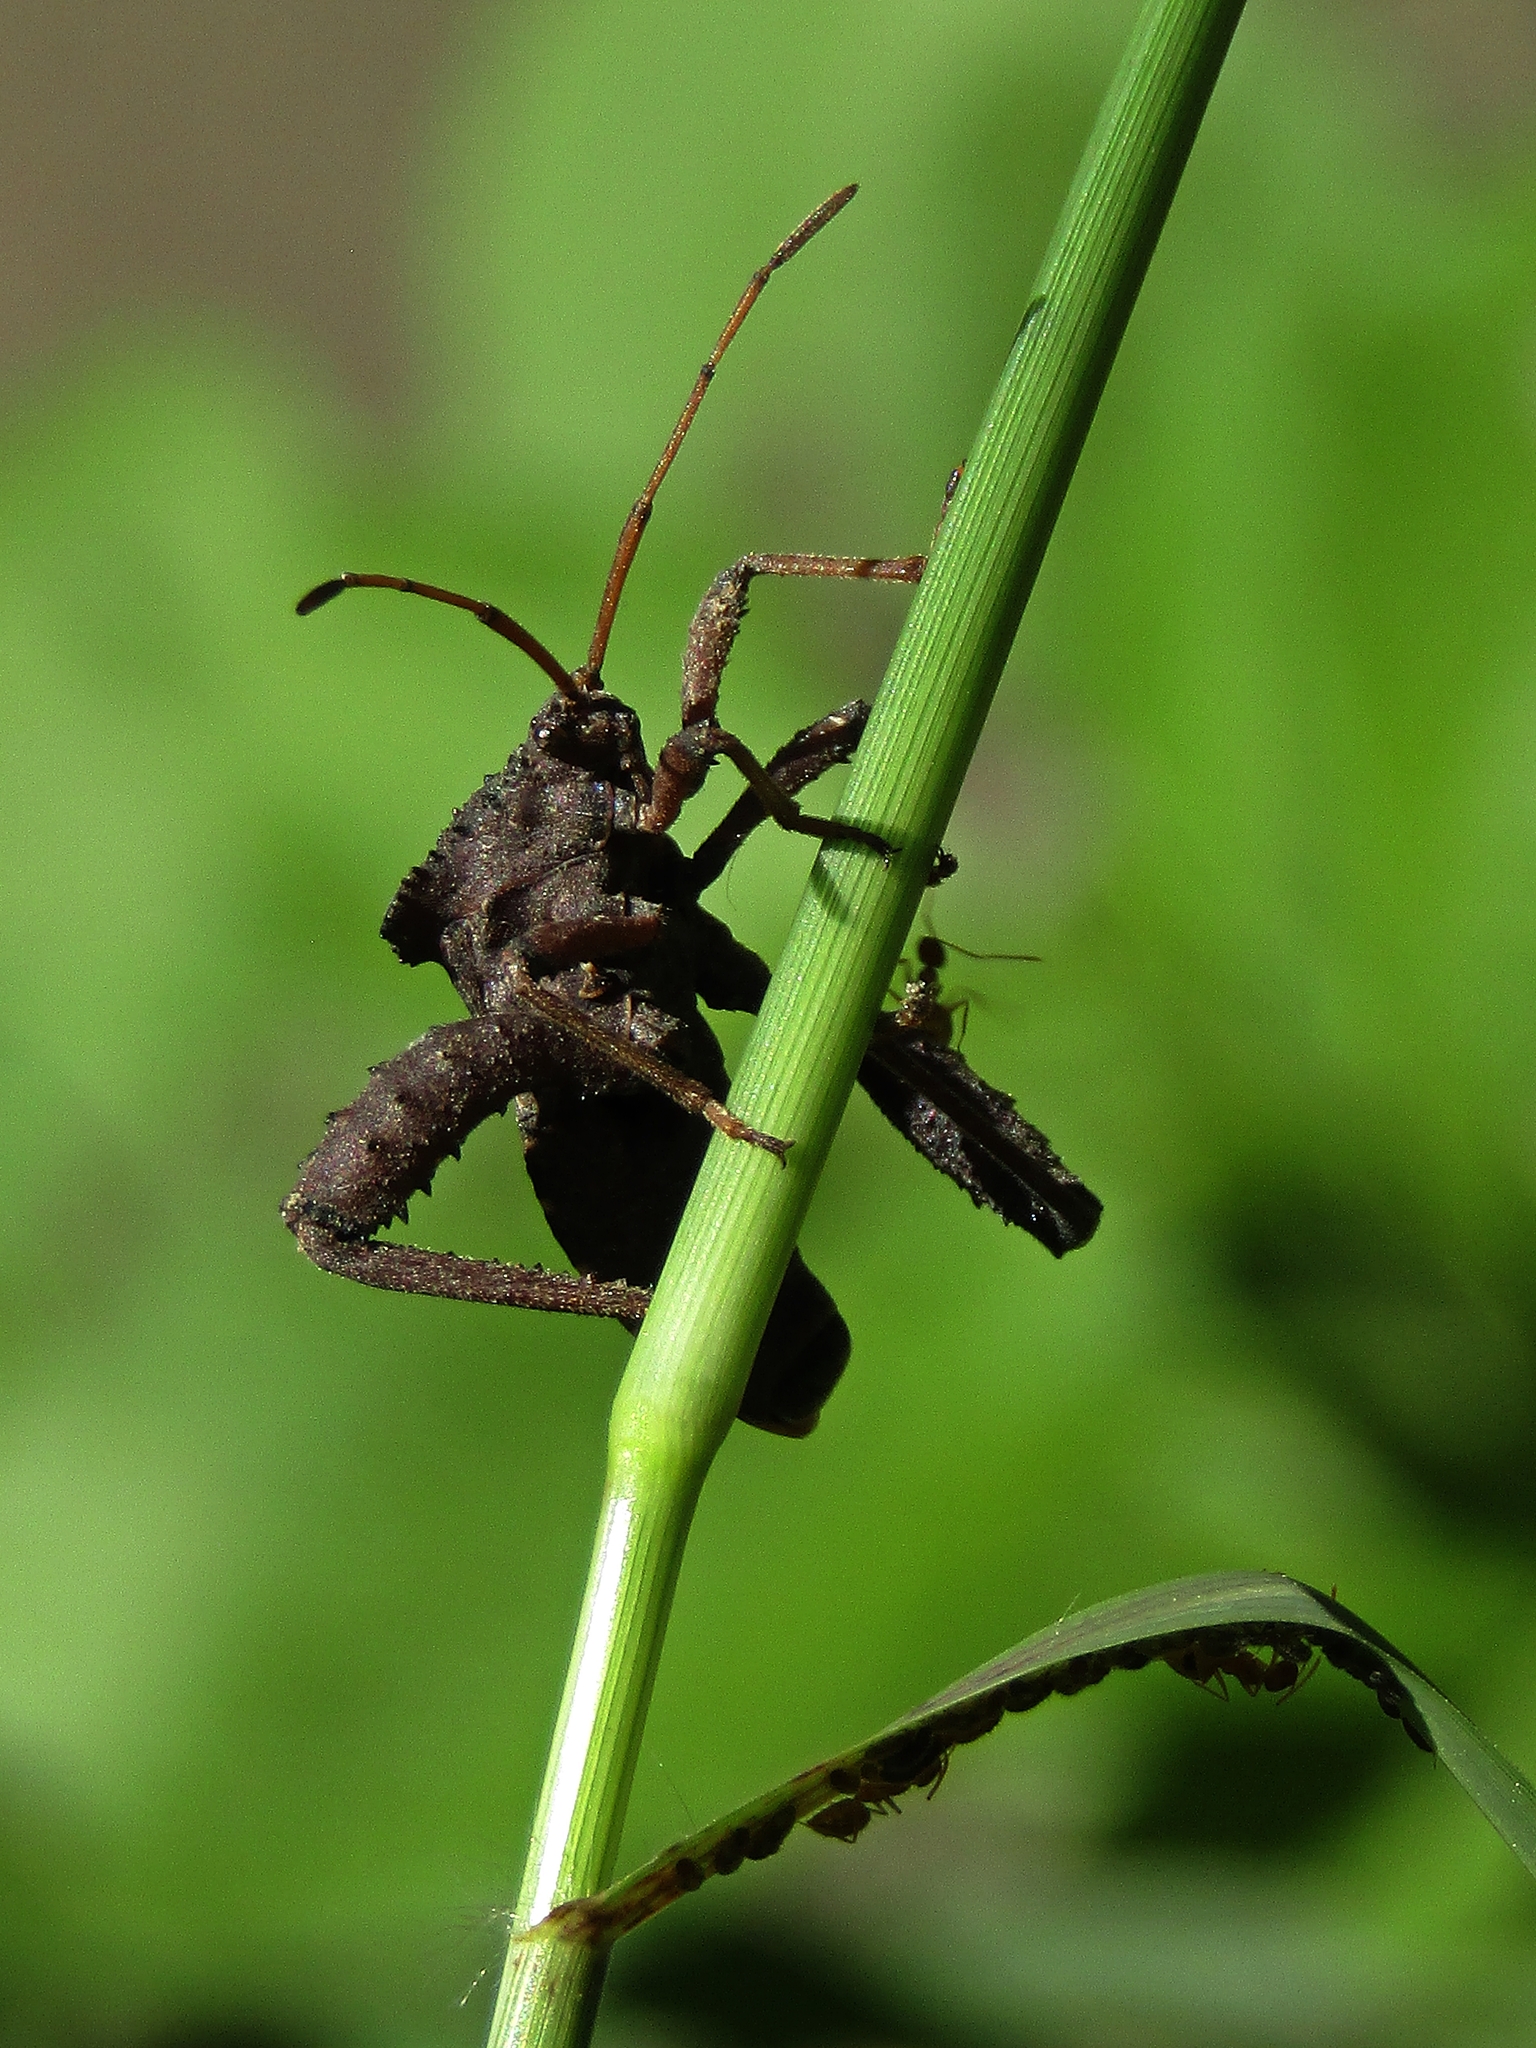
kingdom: Animalia
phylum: Arthropoda
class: Insecta
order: Hemiptera
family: Coreidae
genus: Camptischium
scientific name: Camptischium clavipes
